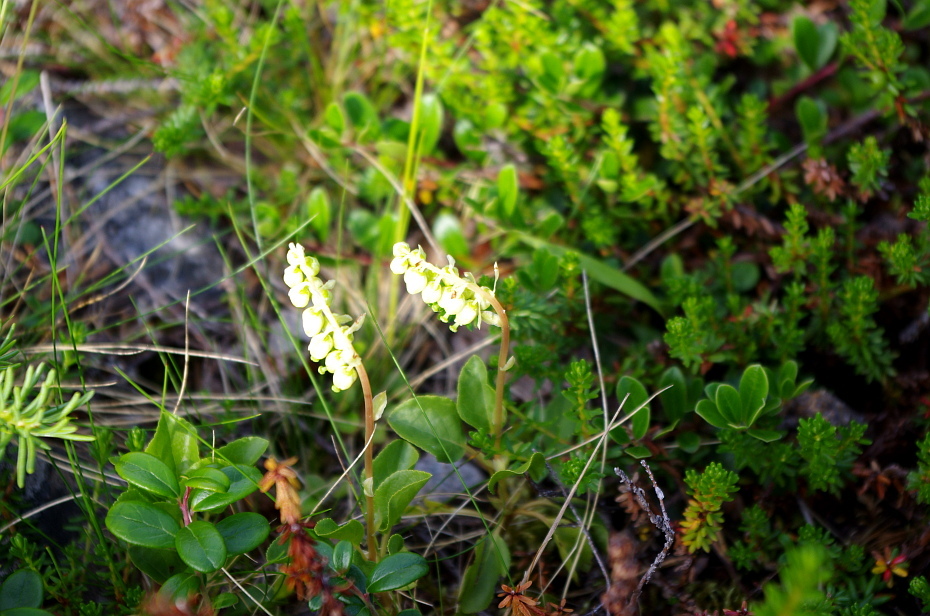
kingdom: Plantae
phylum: Tracheophyta
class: Magnoliopsida
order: Ericales
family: Ericaceae
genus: Orthilia
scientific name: Orthilia secunda
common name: One-sided orthilia
